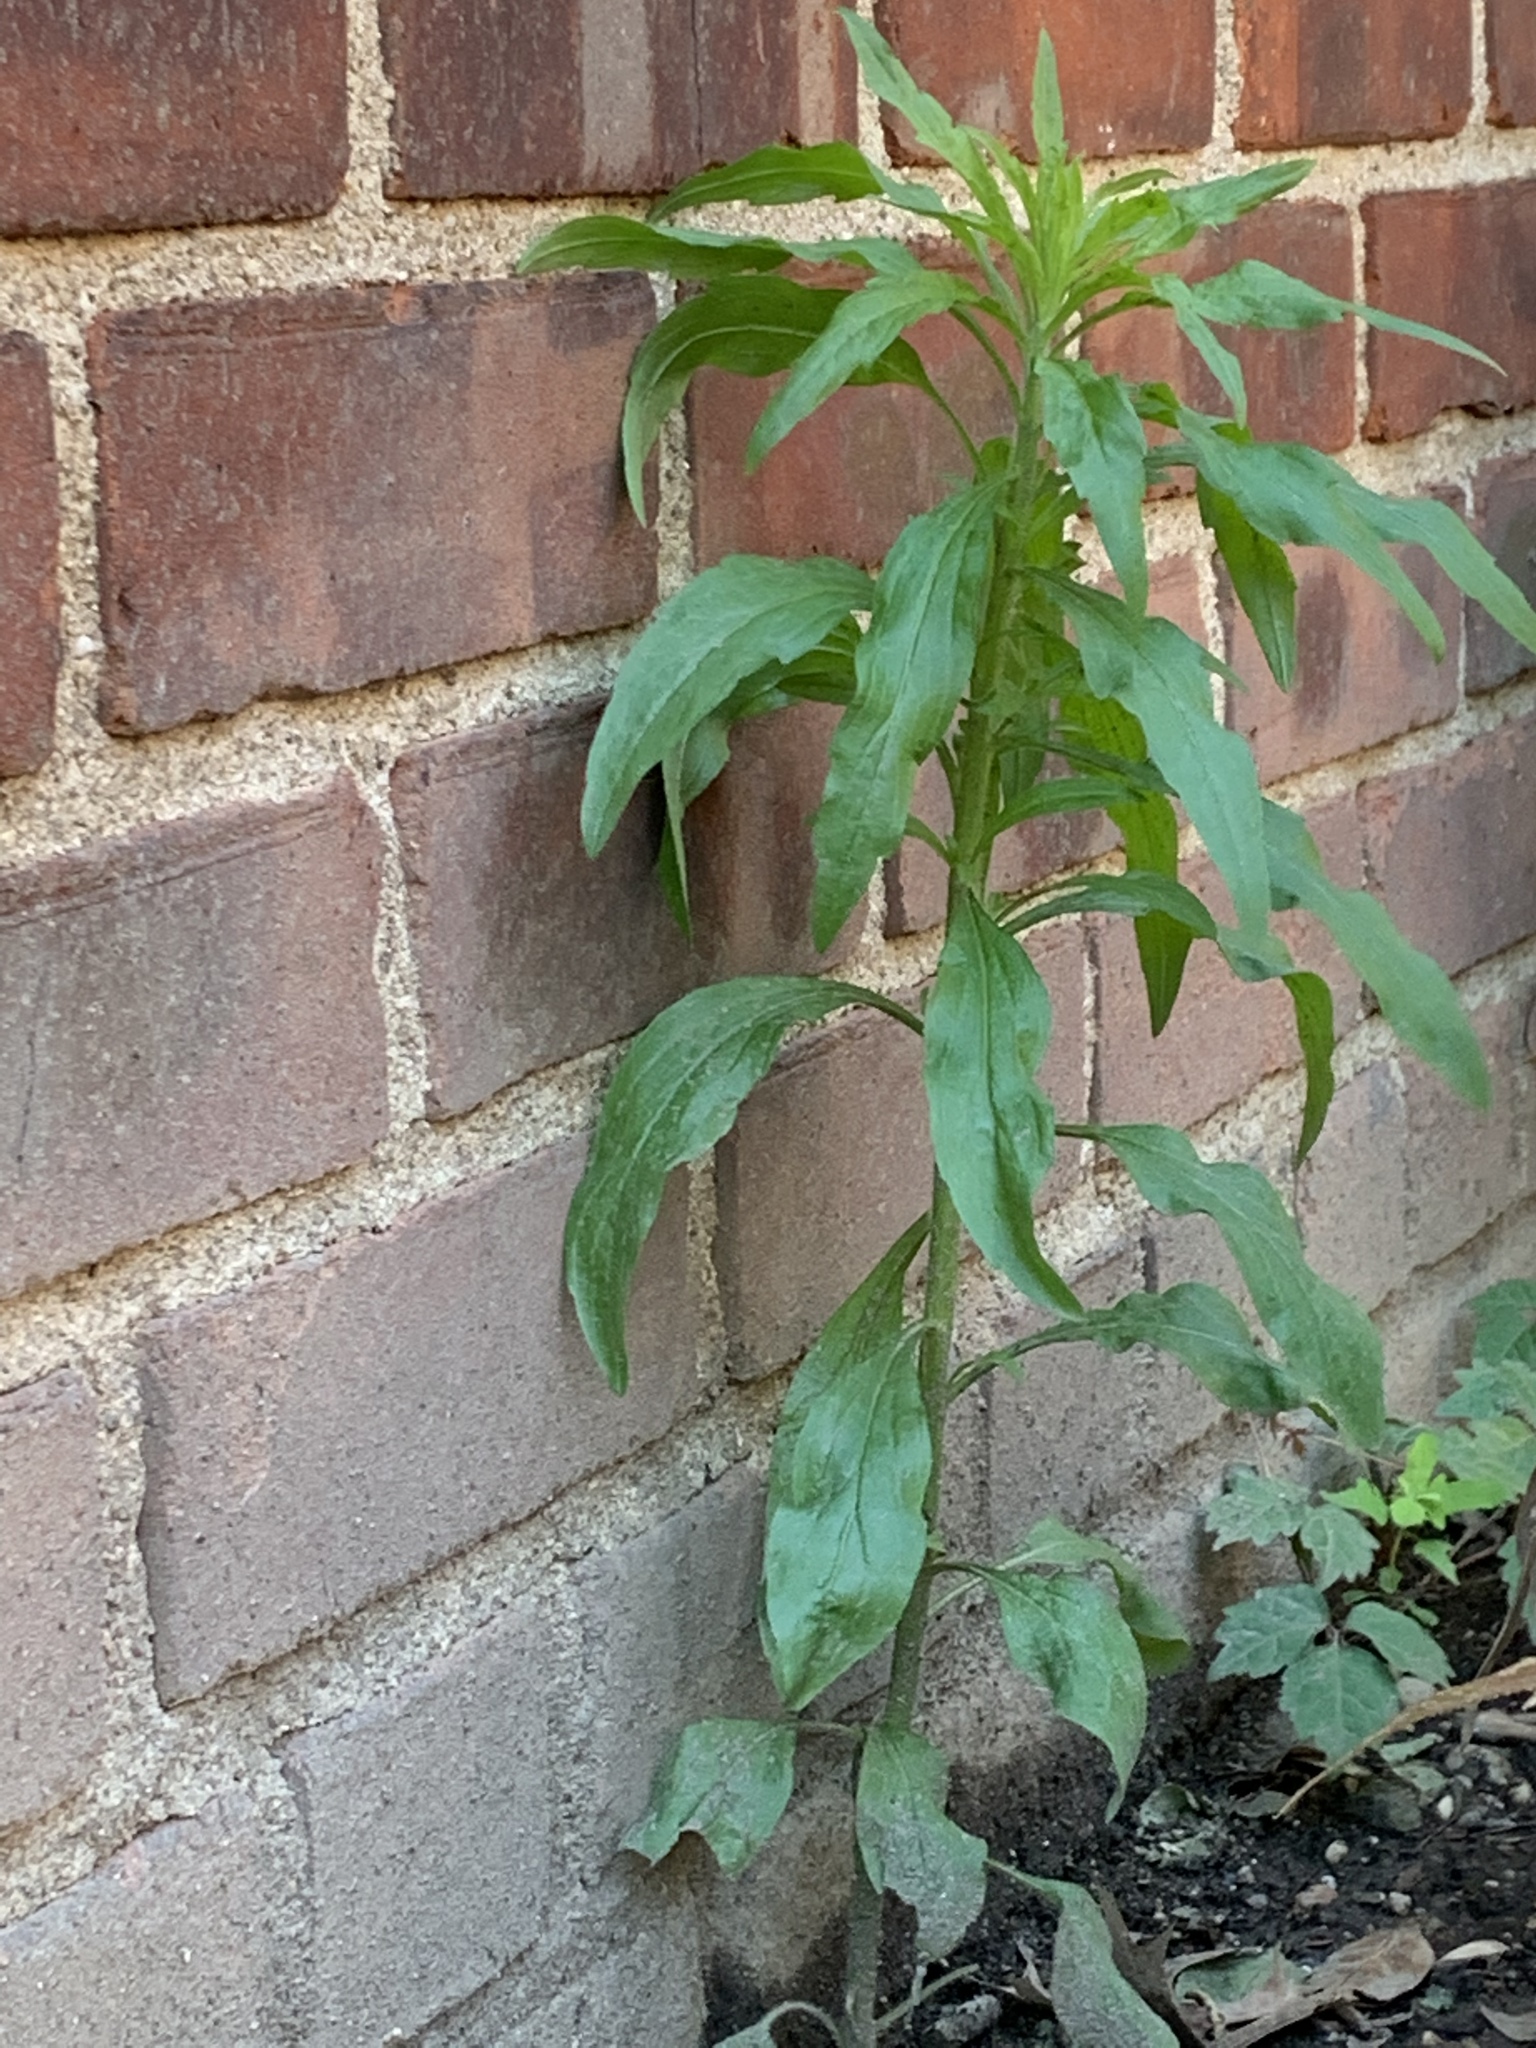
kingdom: Plantae
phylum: Tracheophyta
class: Magnoliopsida
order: Asterales
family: Asteraceae
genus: Erigeron
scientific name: Erigeron canadensis
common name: Canadian fleabane
